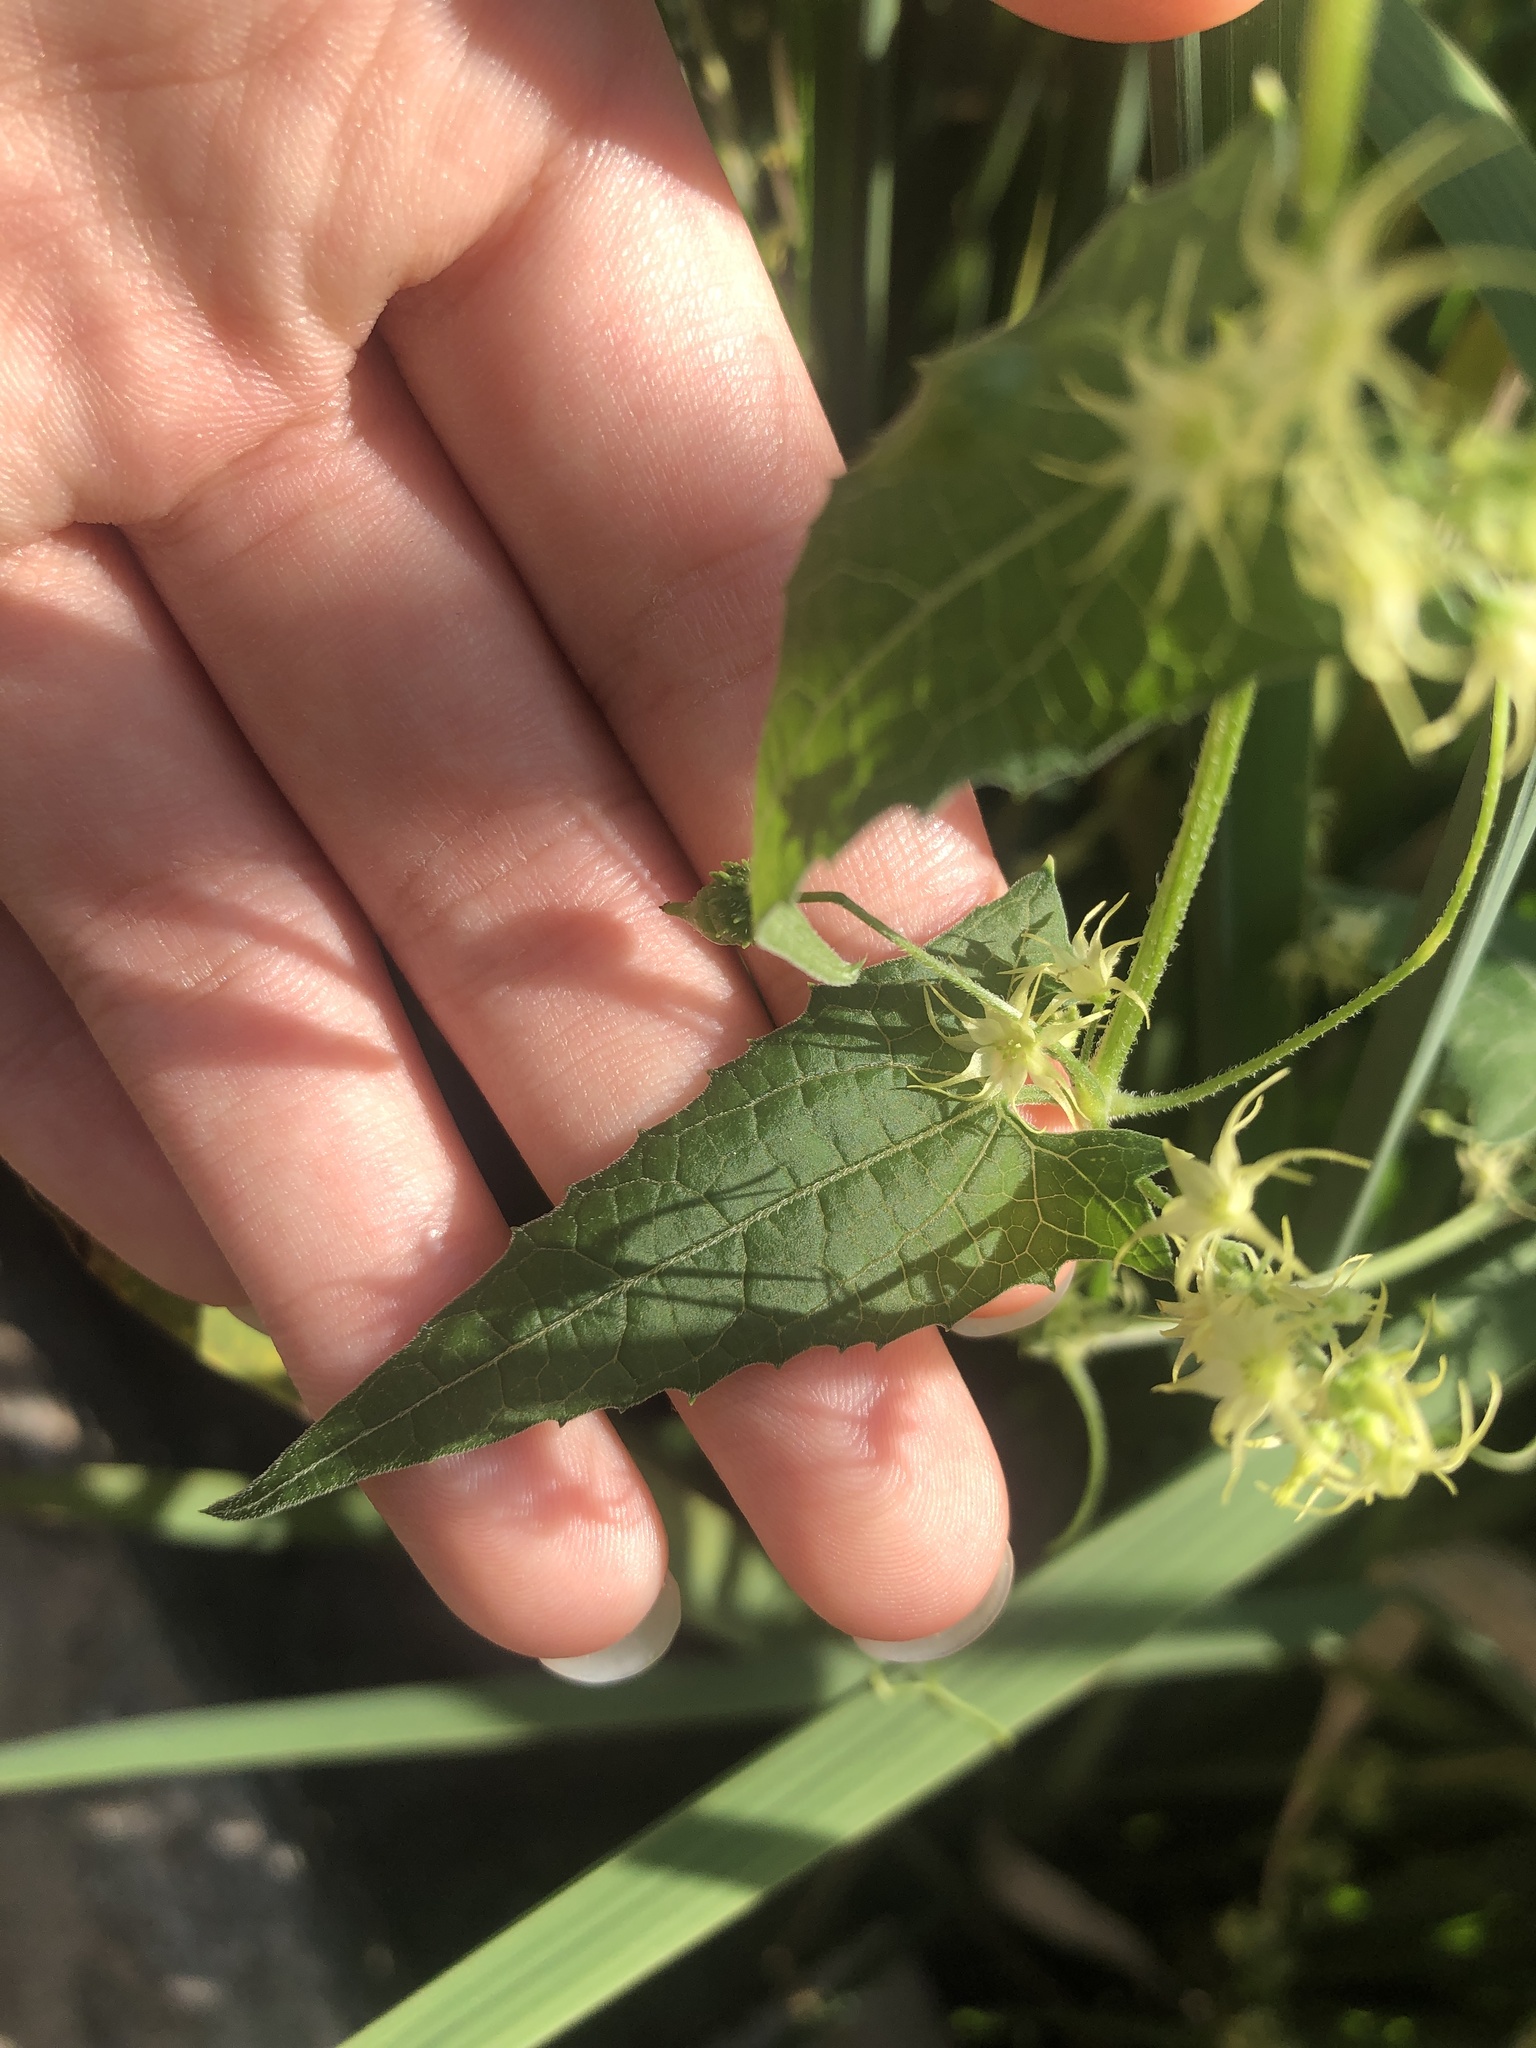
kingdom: Plantae
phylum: Tracheophyta
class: Magnoliopsida
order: Cucurbitales
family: Cucurbitaceae
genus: Actinostemma
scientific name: Actinostemma tenerum
